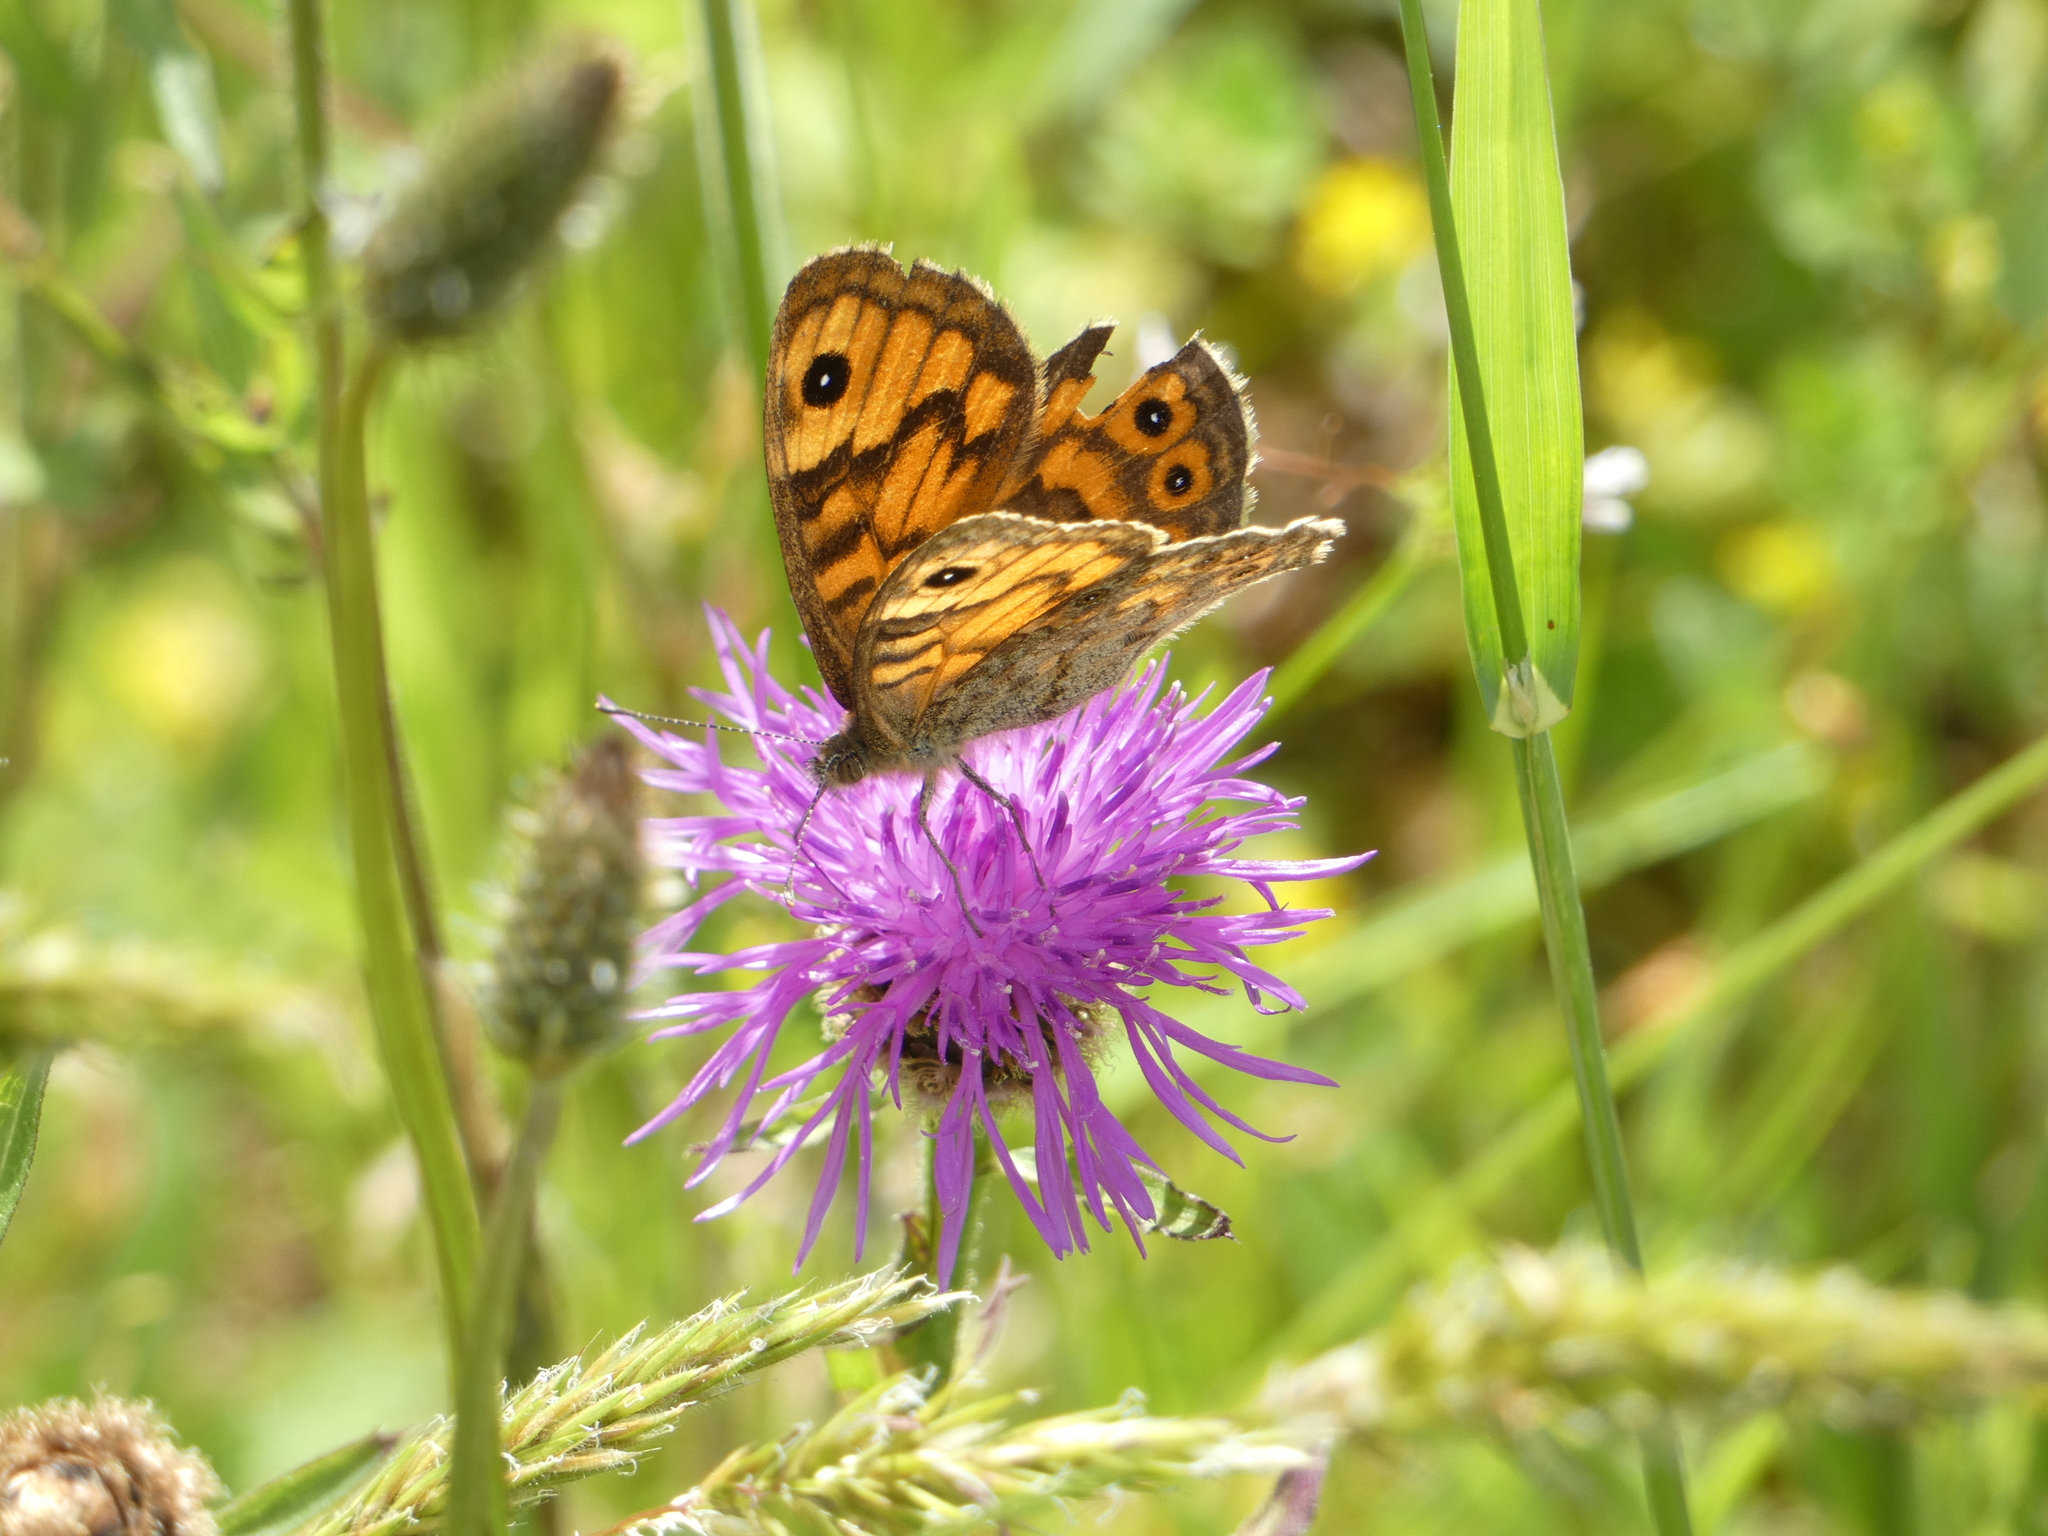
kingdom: Animalia
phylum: Arthropoda
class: Insecta
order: Lepidoptera
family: Nymphalidae
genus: Pararge
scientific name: Pararge Lasiommata megera
